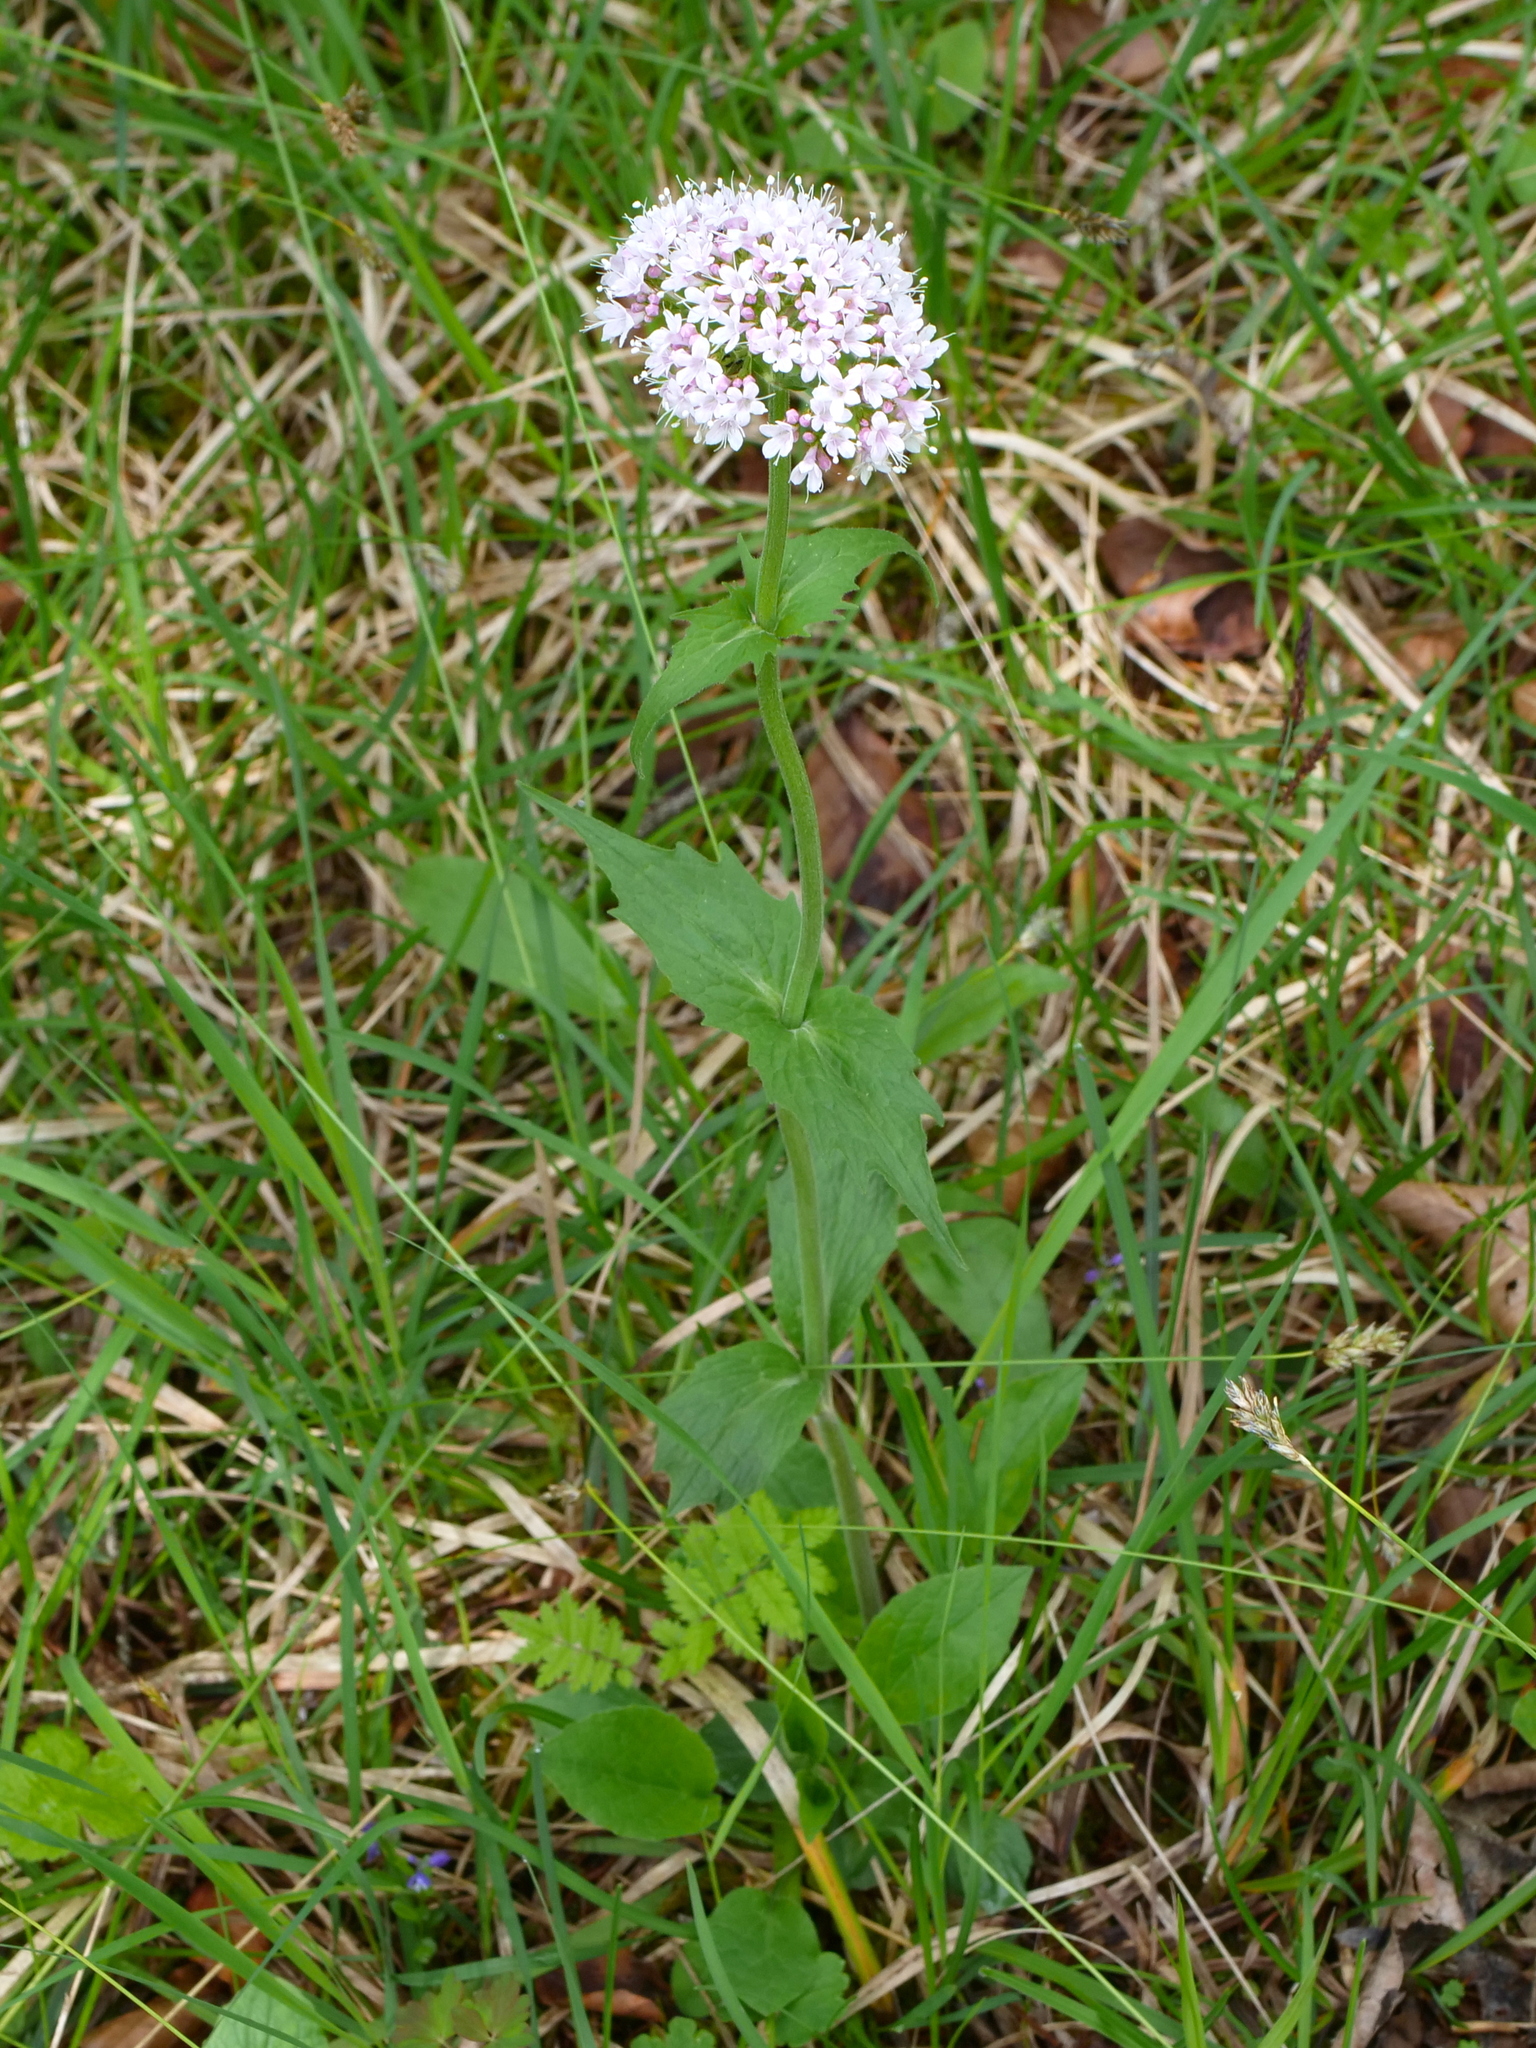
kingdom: Plantae
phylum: Tracheophyta
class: Magnoliopsida
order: Dipsacales
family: Caprifoliaceae
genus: Valeriana
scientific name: Valeriana montana
